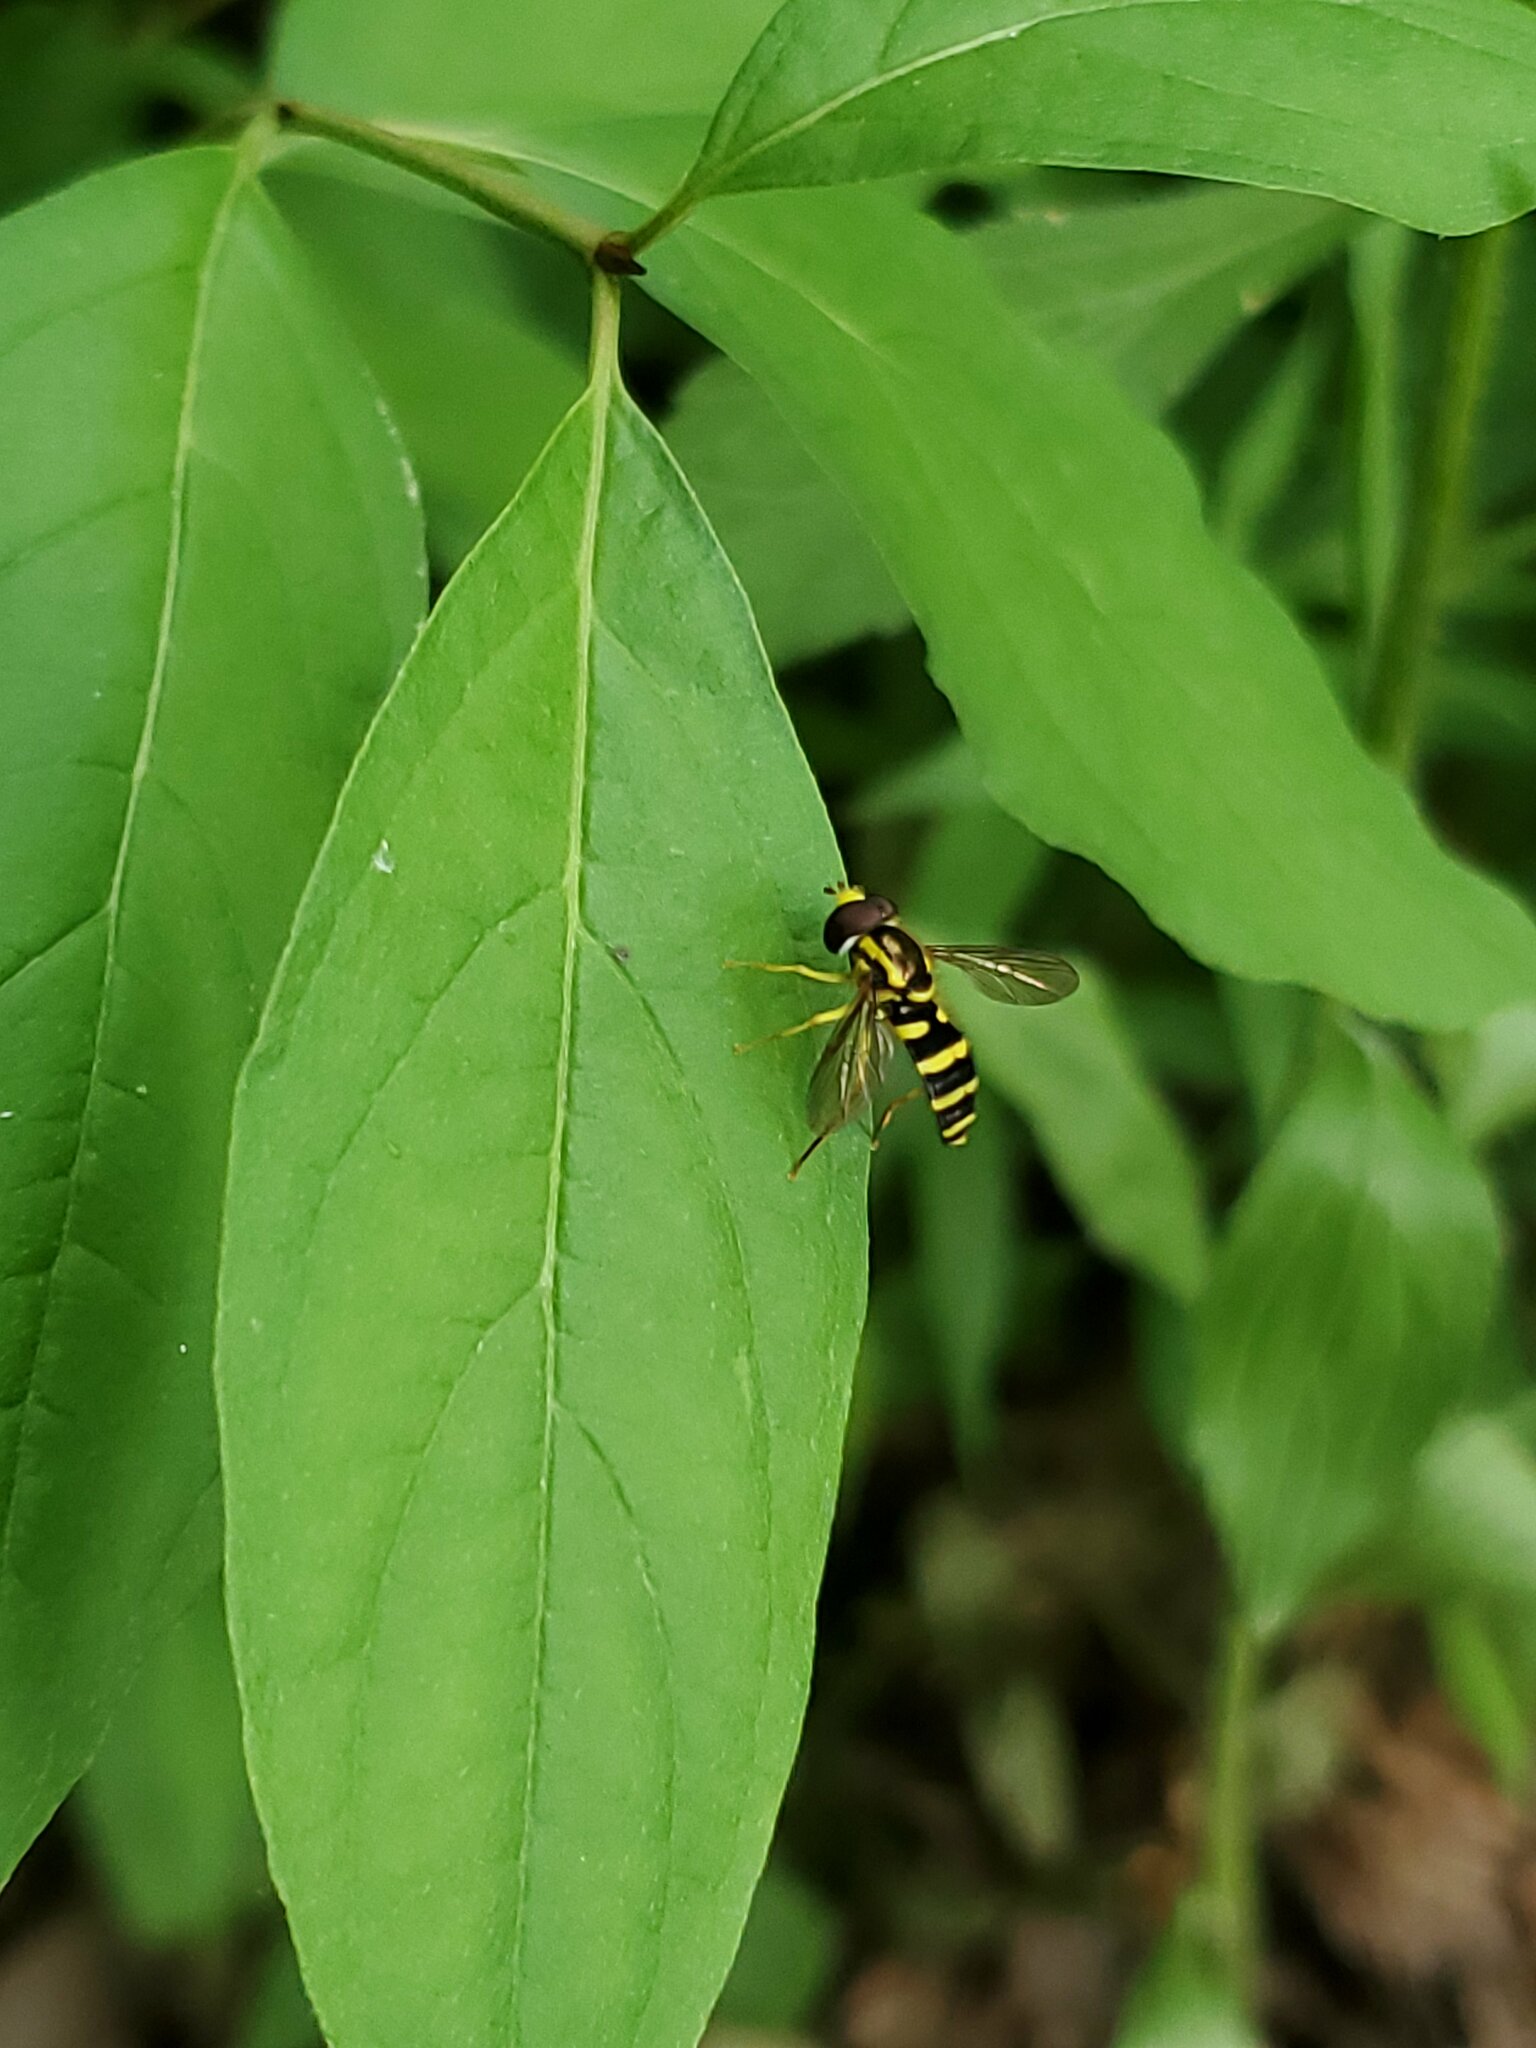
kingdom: Animalia
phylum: Arthropoda
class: Insecta
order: Diptera
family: Syrphidae
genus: Philhelius
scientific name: Philhelius flavipes
